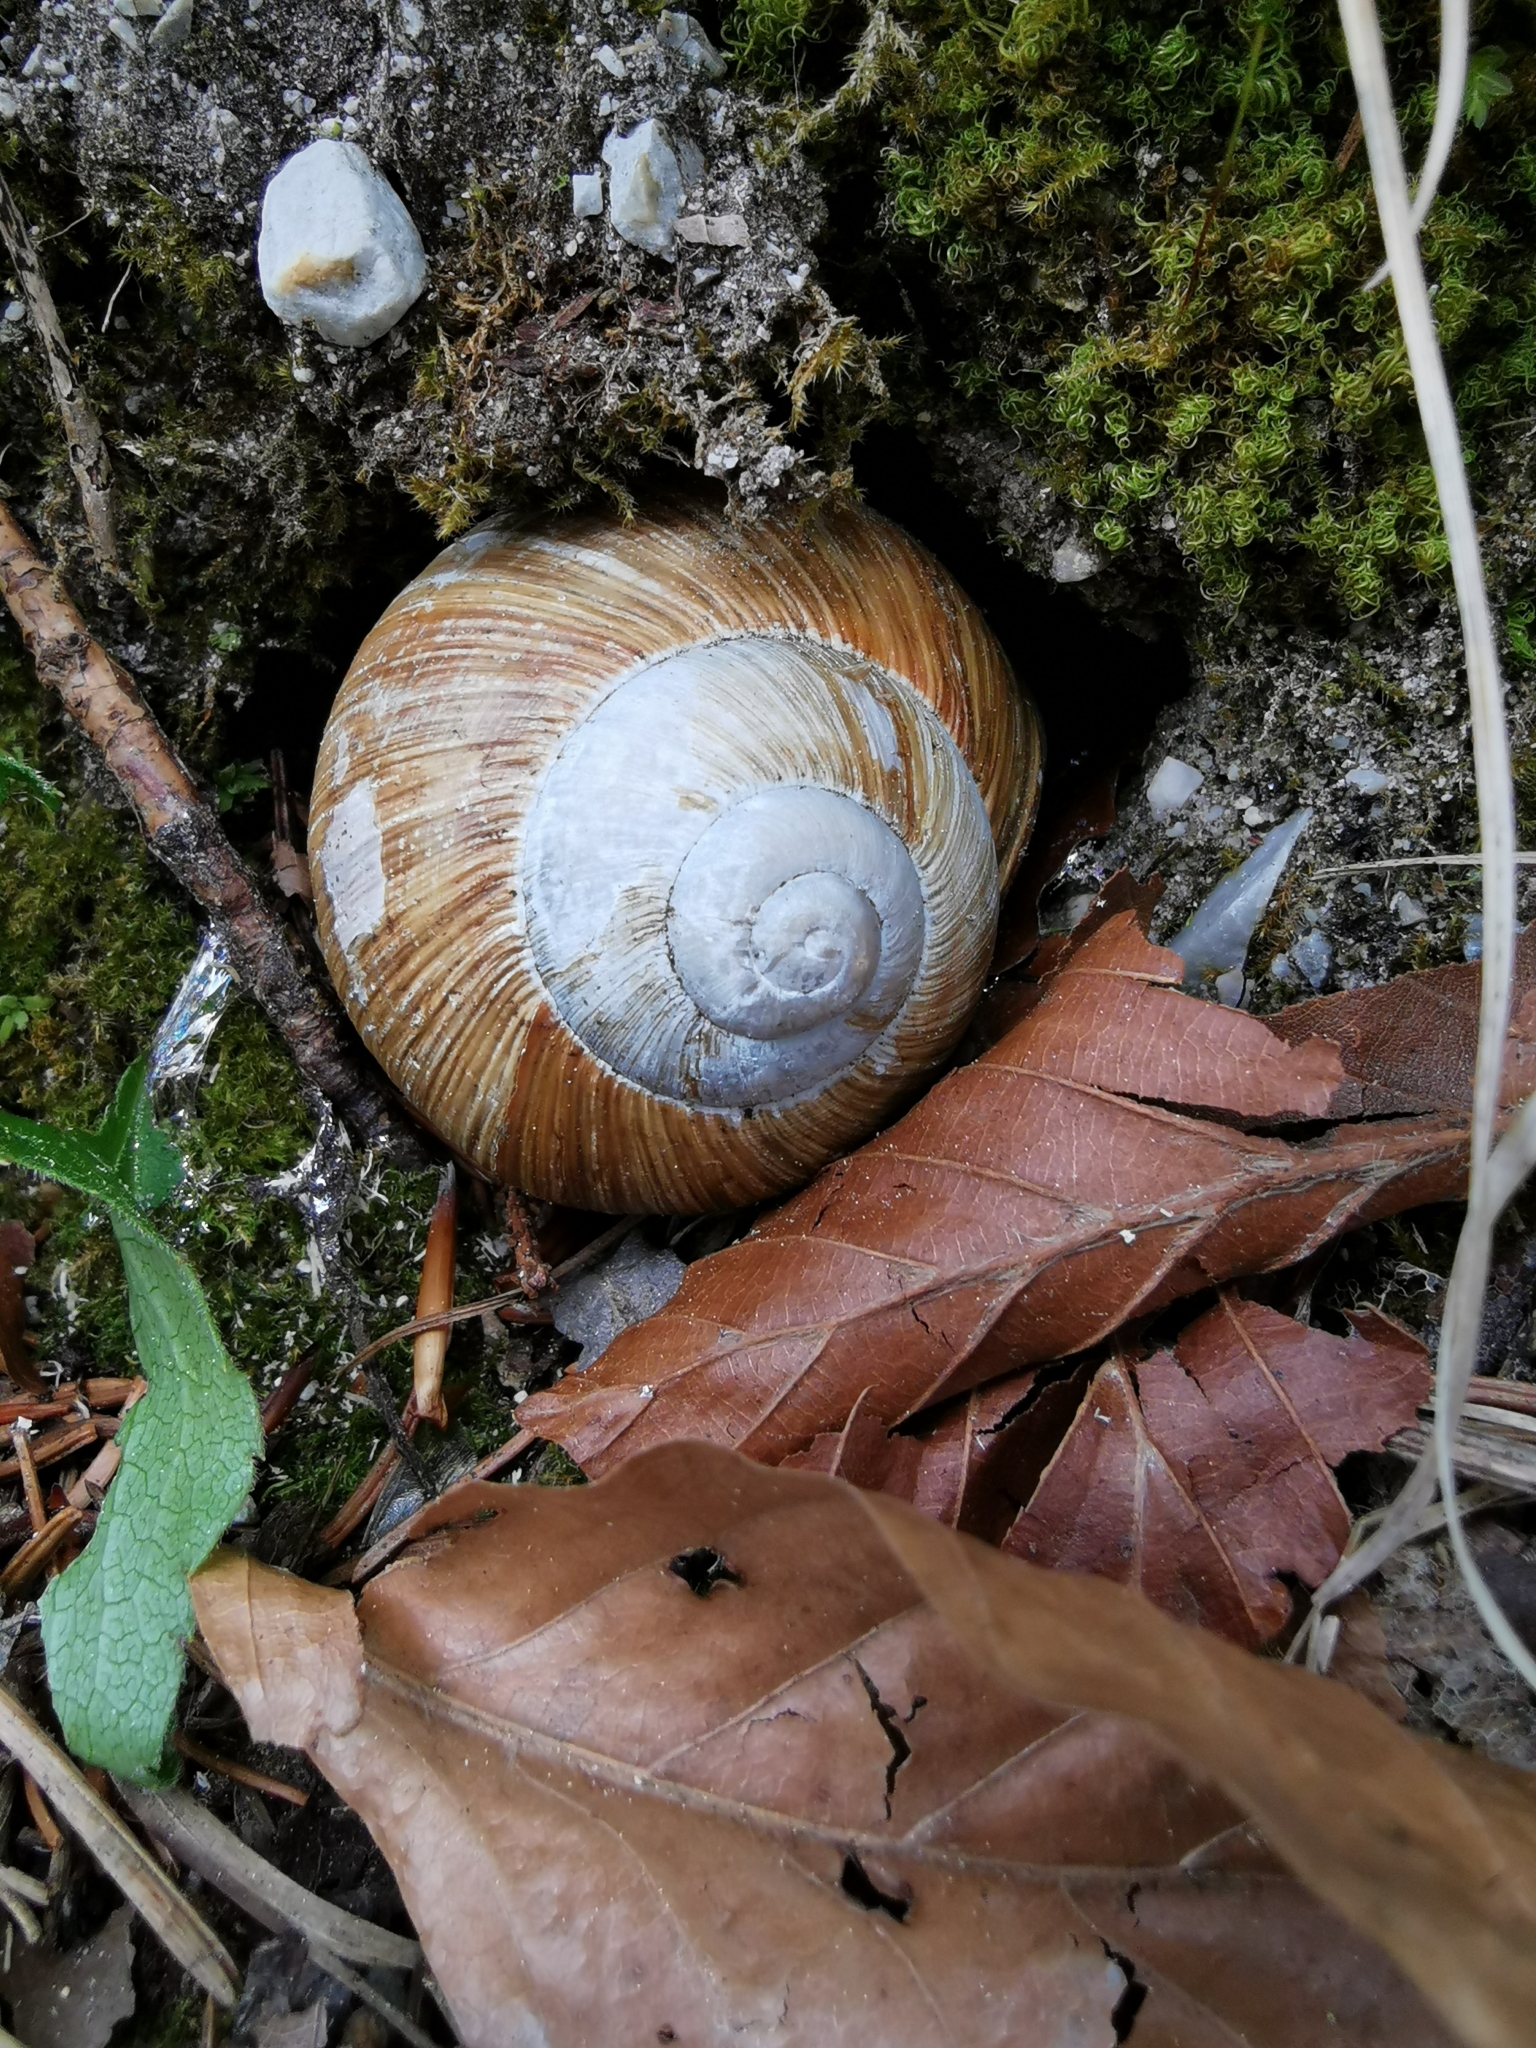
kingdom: Animalia
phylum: Mollusca
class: Gastropoda
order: Stylommatophora
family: Helicidae
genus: Helix
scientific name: Helix pomatia
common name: Roman snail
